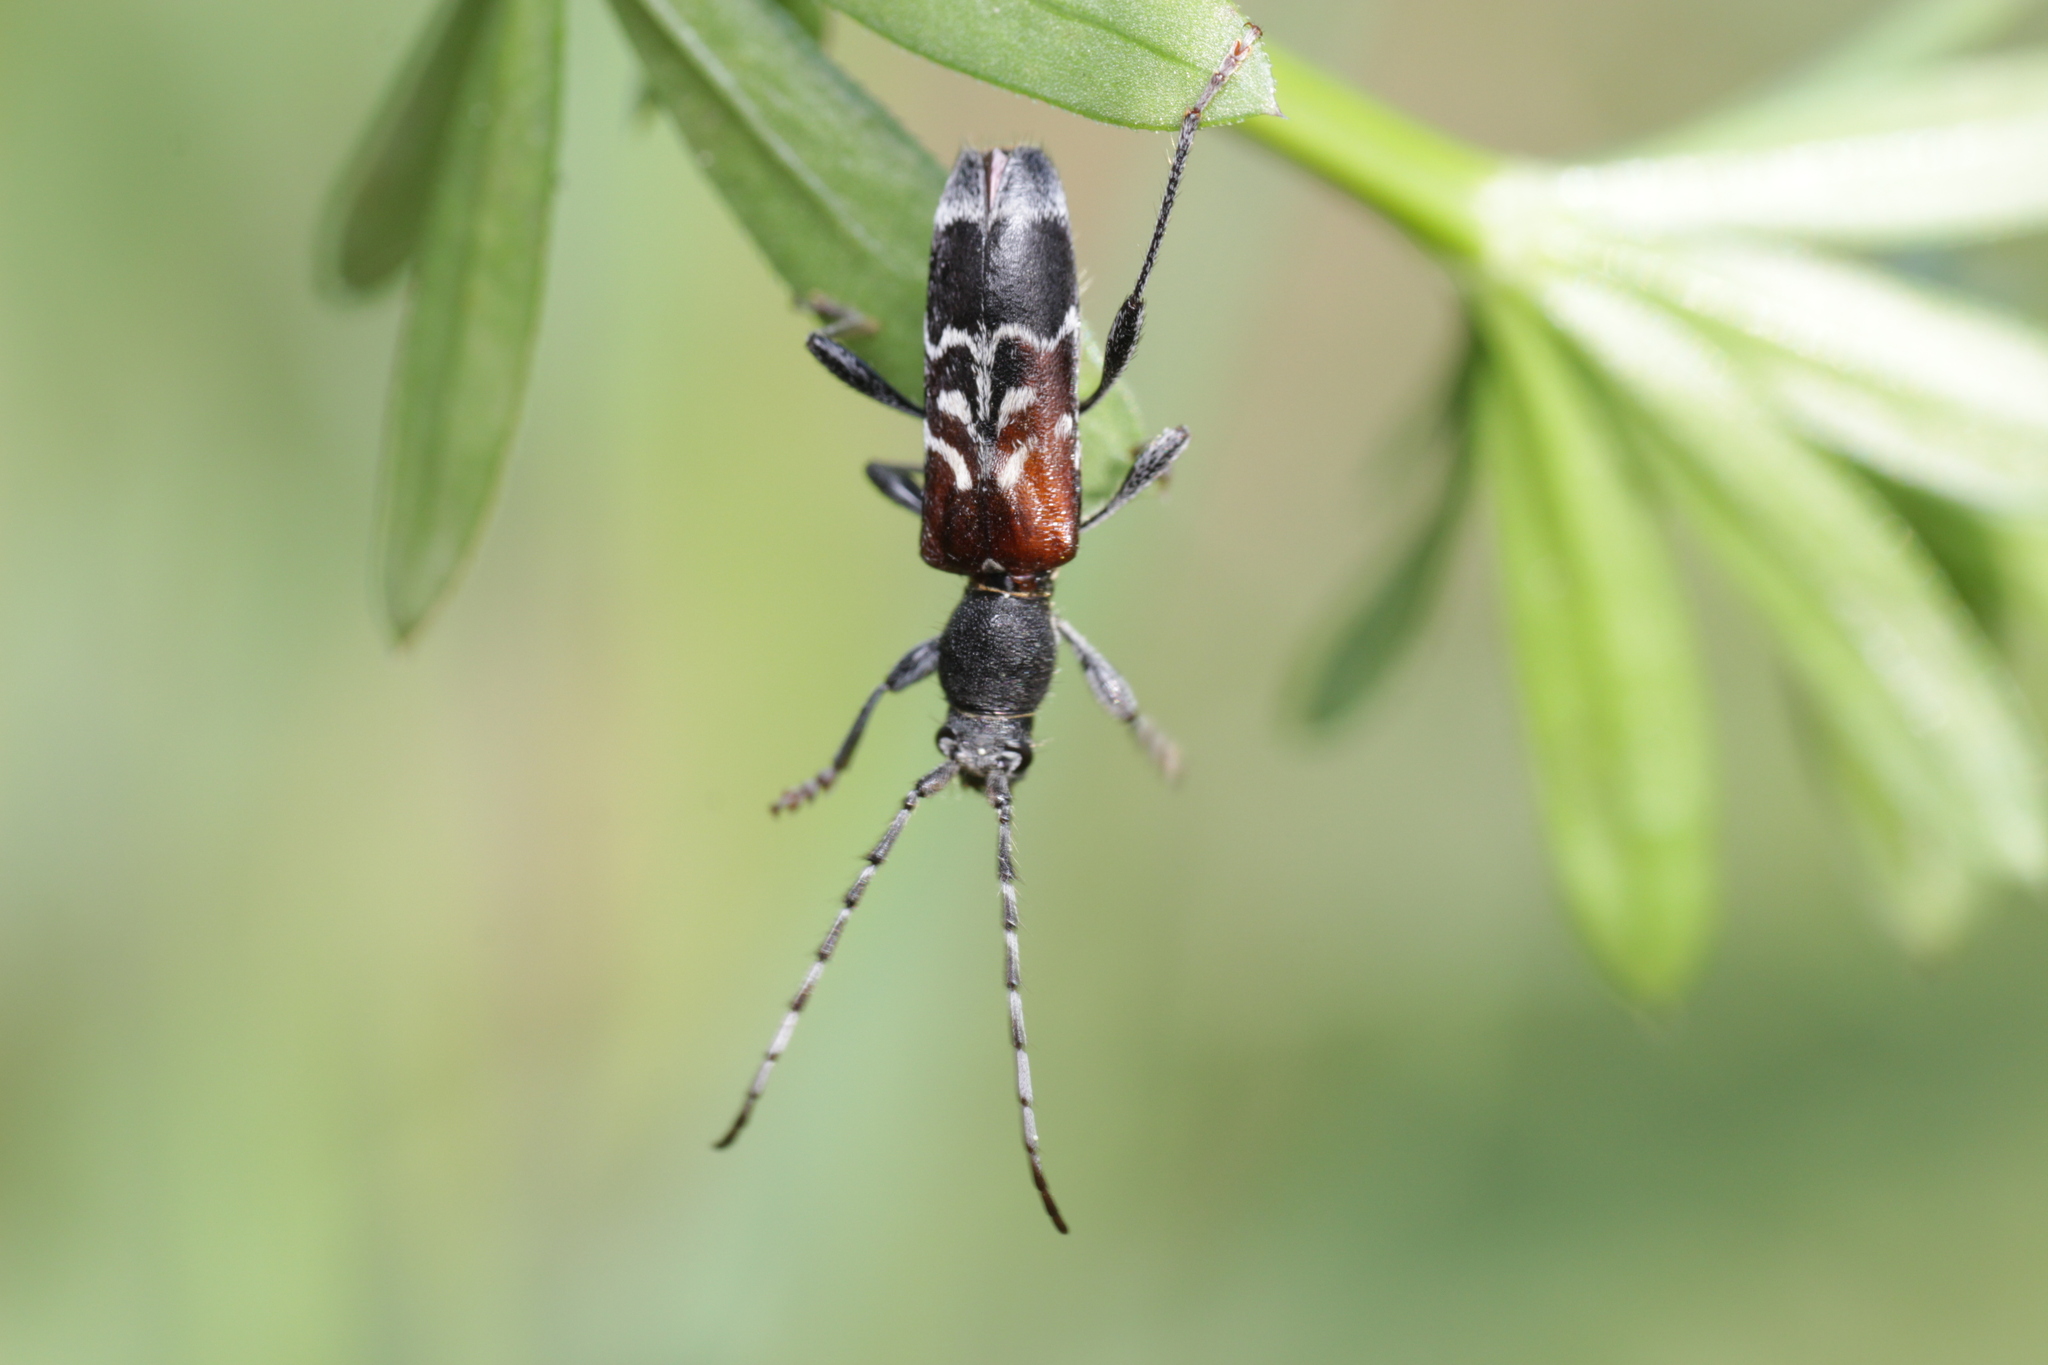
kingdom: Animalia
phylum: Arthropoda
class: Insecta
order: Coleoptera
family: Cerambycidae
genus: Anaglyptus
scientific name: Anaglyptus mysticus
